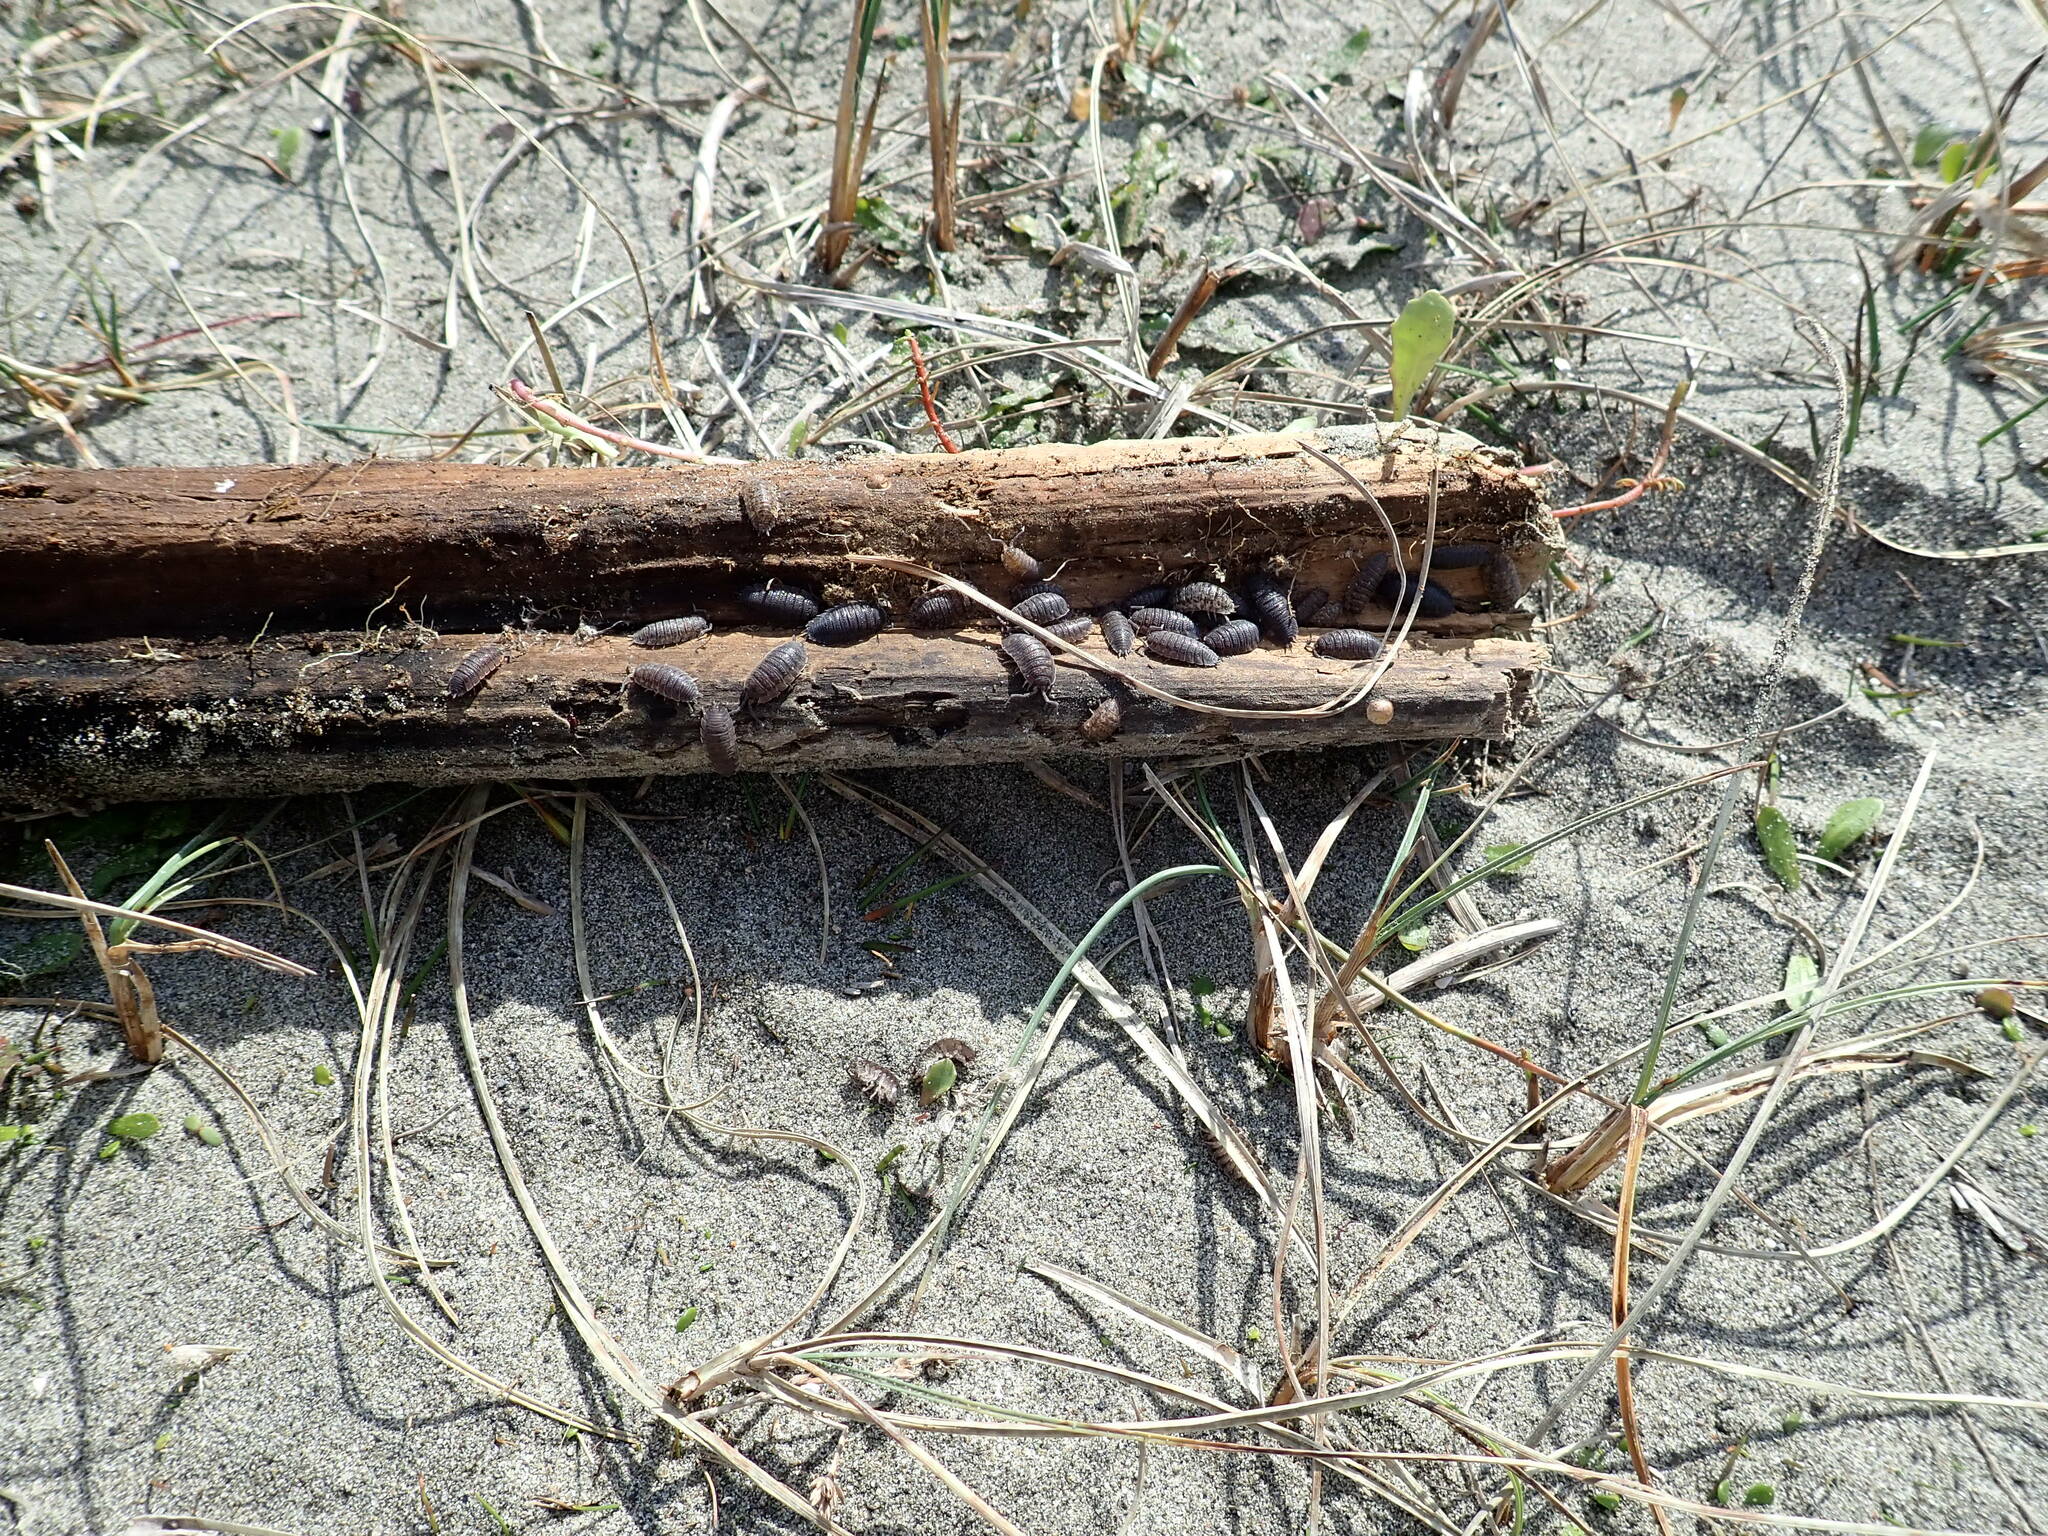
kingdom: Animalia
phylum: Arthropoda
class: Malacostraca
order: Isopoda
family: Porcellionidae
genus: Porcellio
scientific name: Porcellio scaber
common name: Common rough woodlouse
